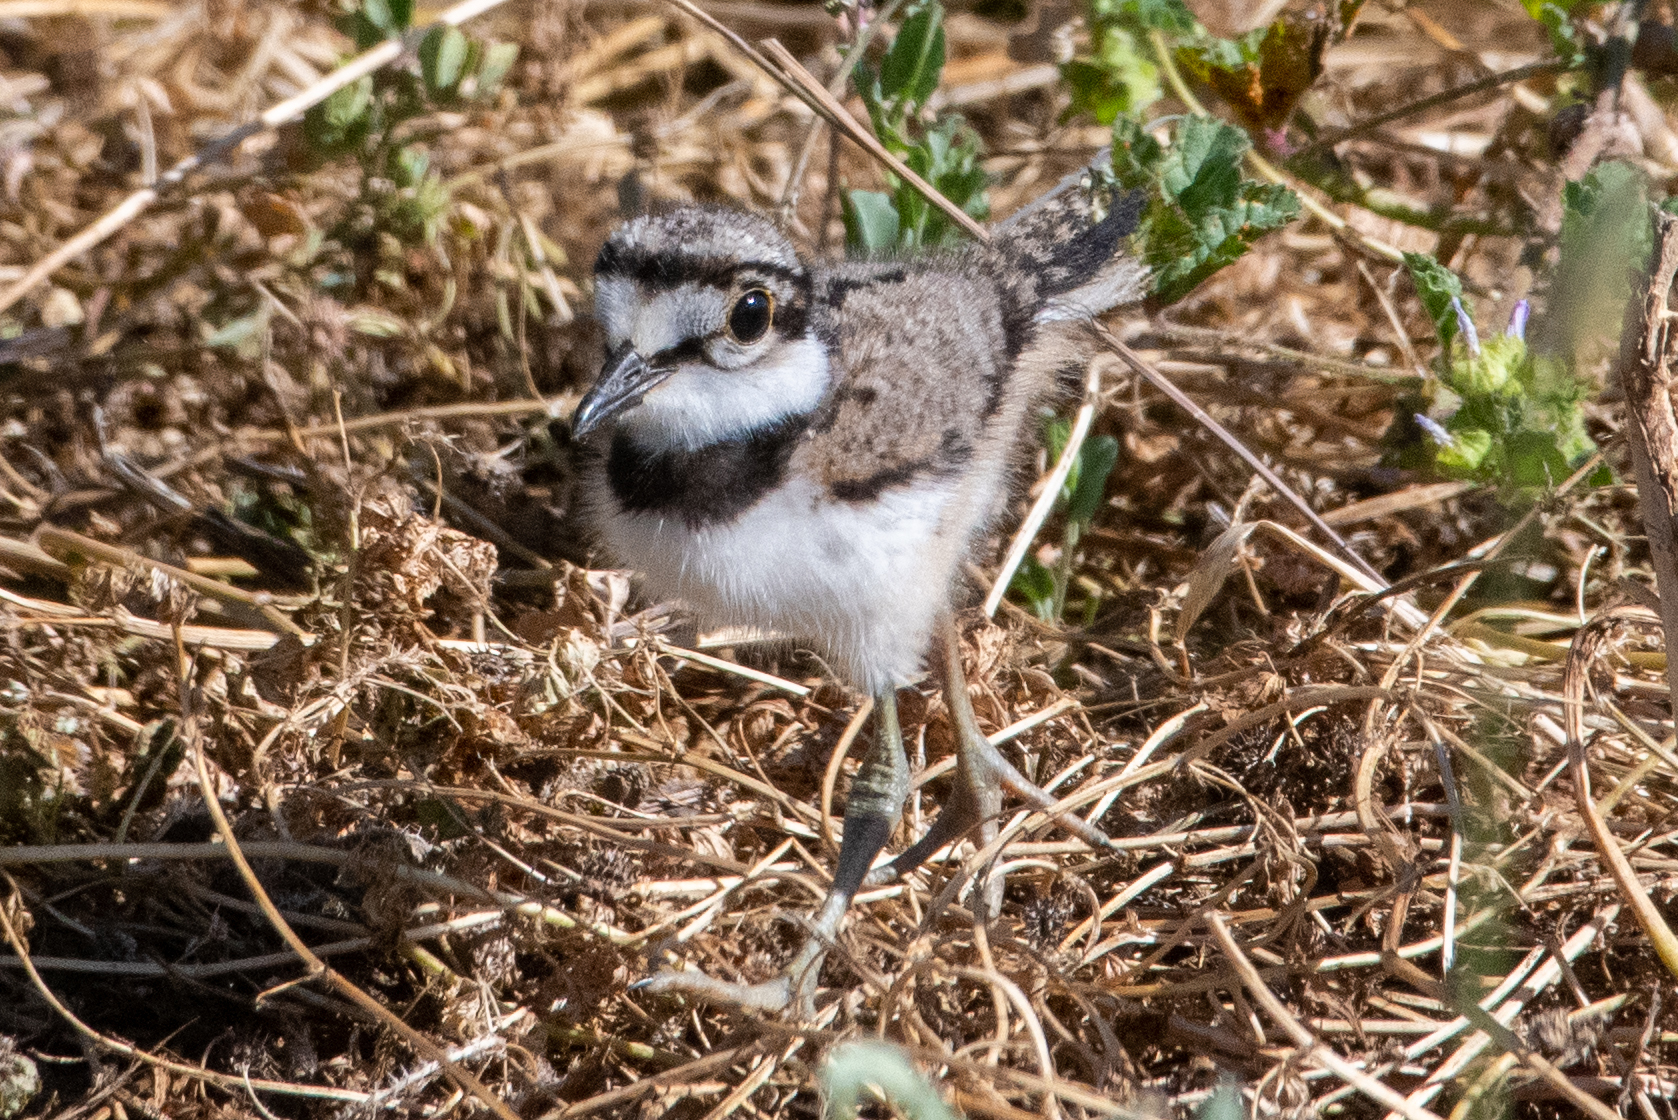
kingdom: Animalia
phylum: Chordata
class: Aves
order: Charadriiformes
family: Charadriidae
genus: Charadrius
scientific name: Charadrius vociferus
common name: Killdeer
